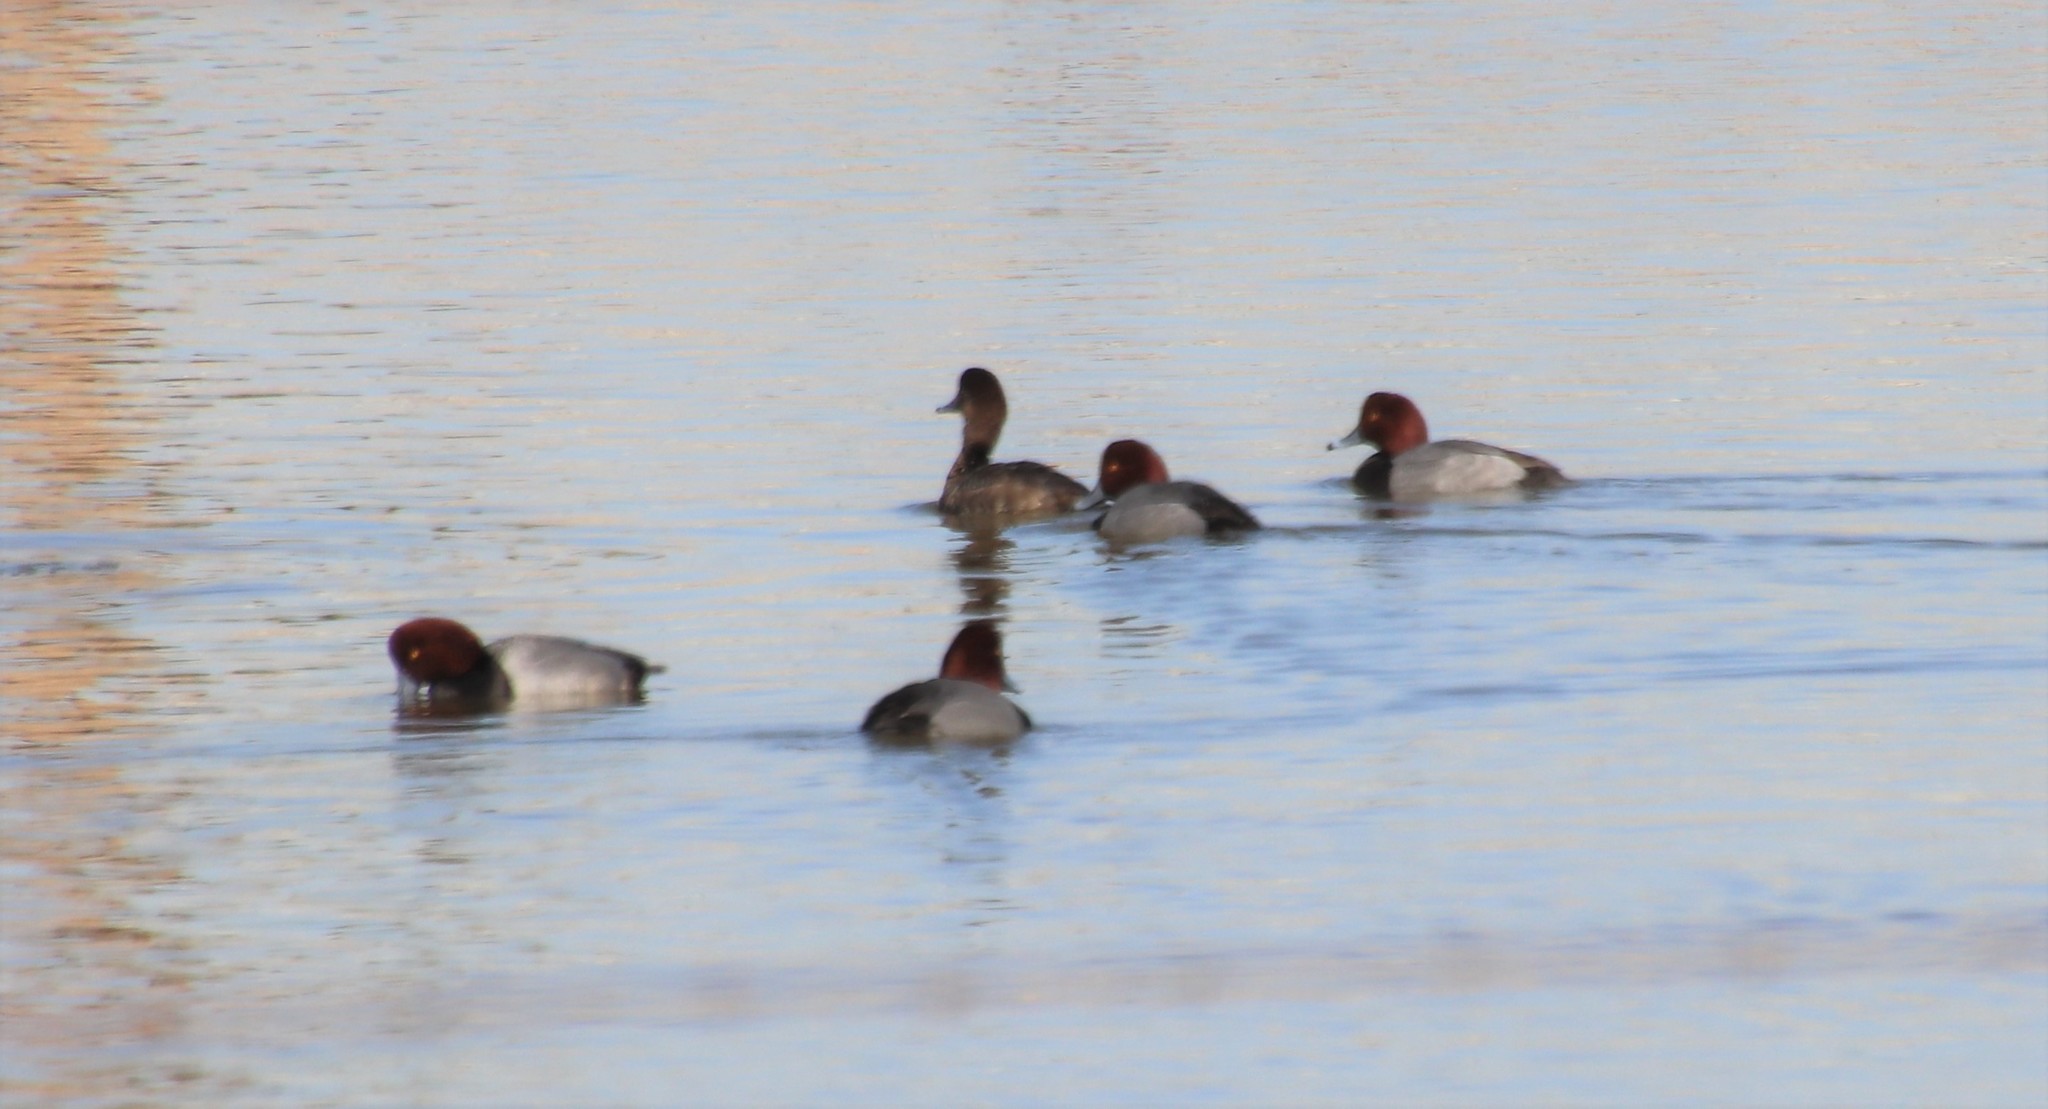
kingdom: Animalia
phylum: Chordata
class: Aves
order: Anseriformes
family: Anatidae
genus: Aythya
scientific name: Aythya americana
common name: Redhead
